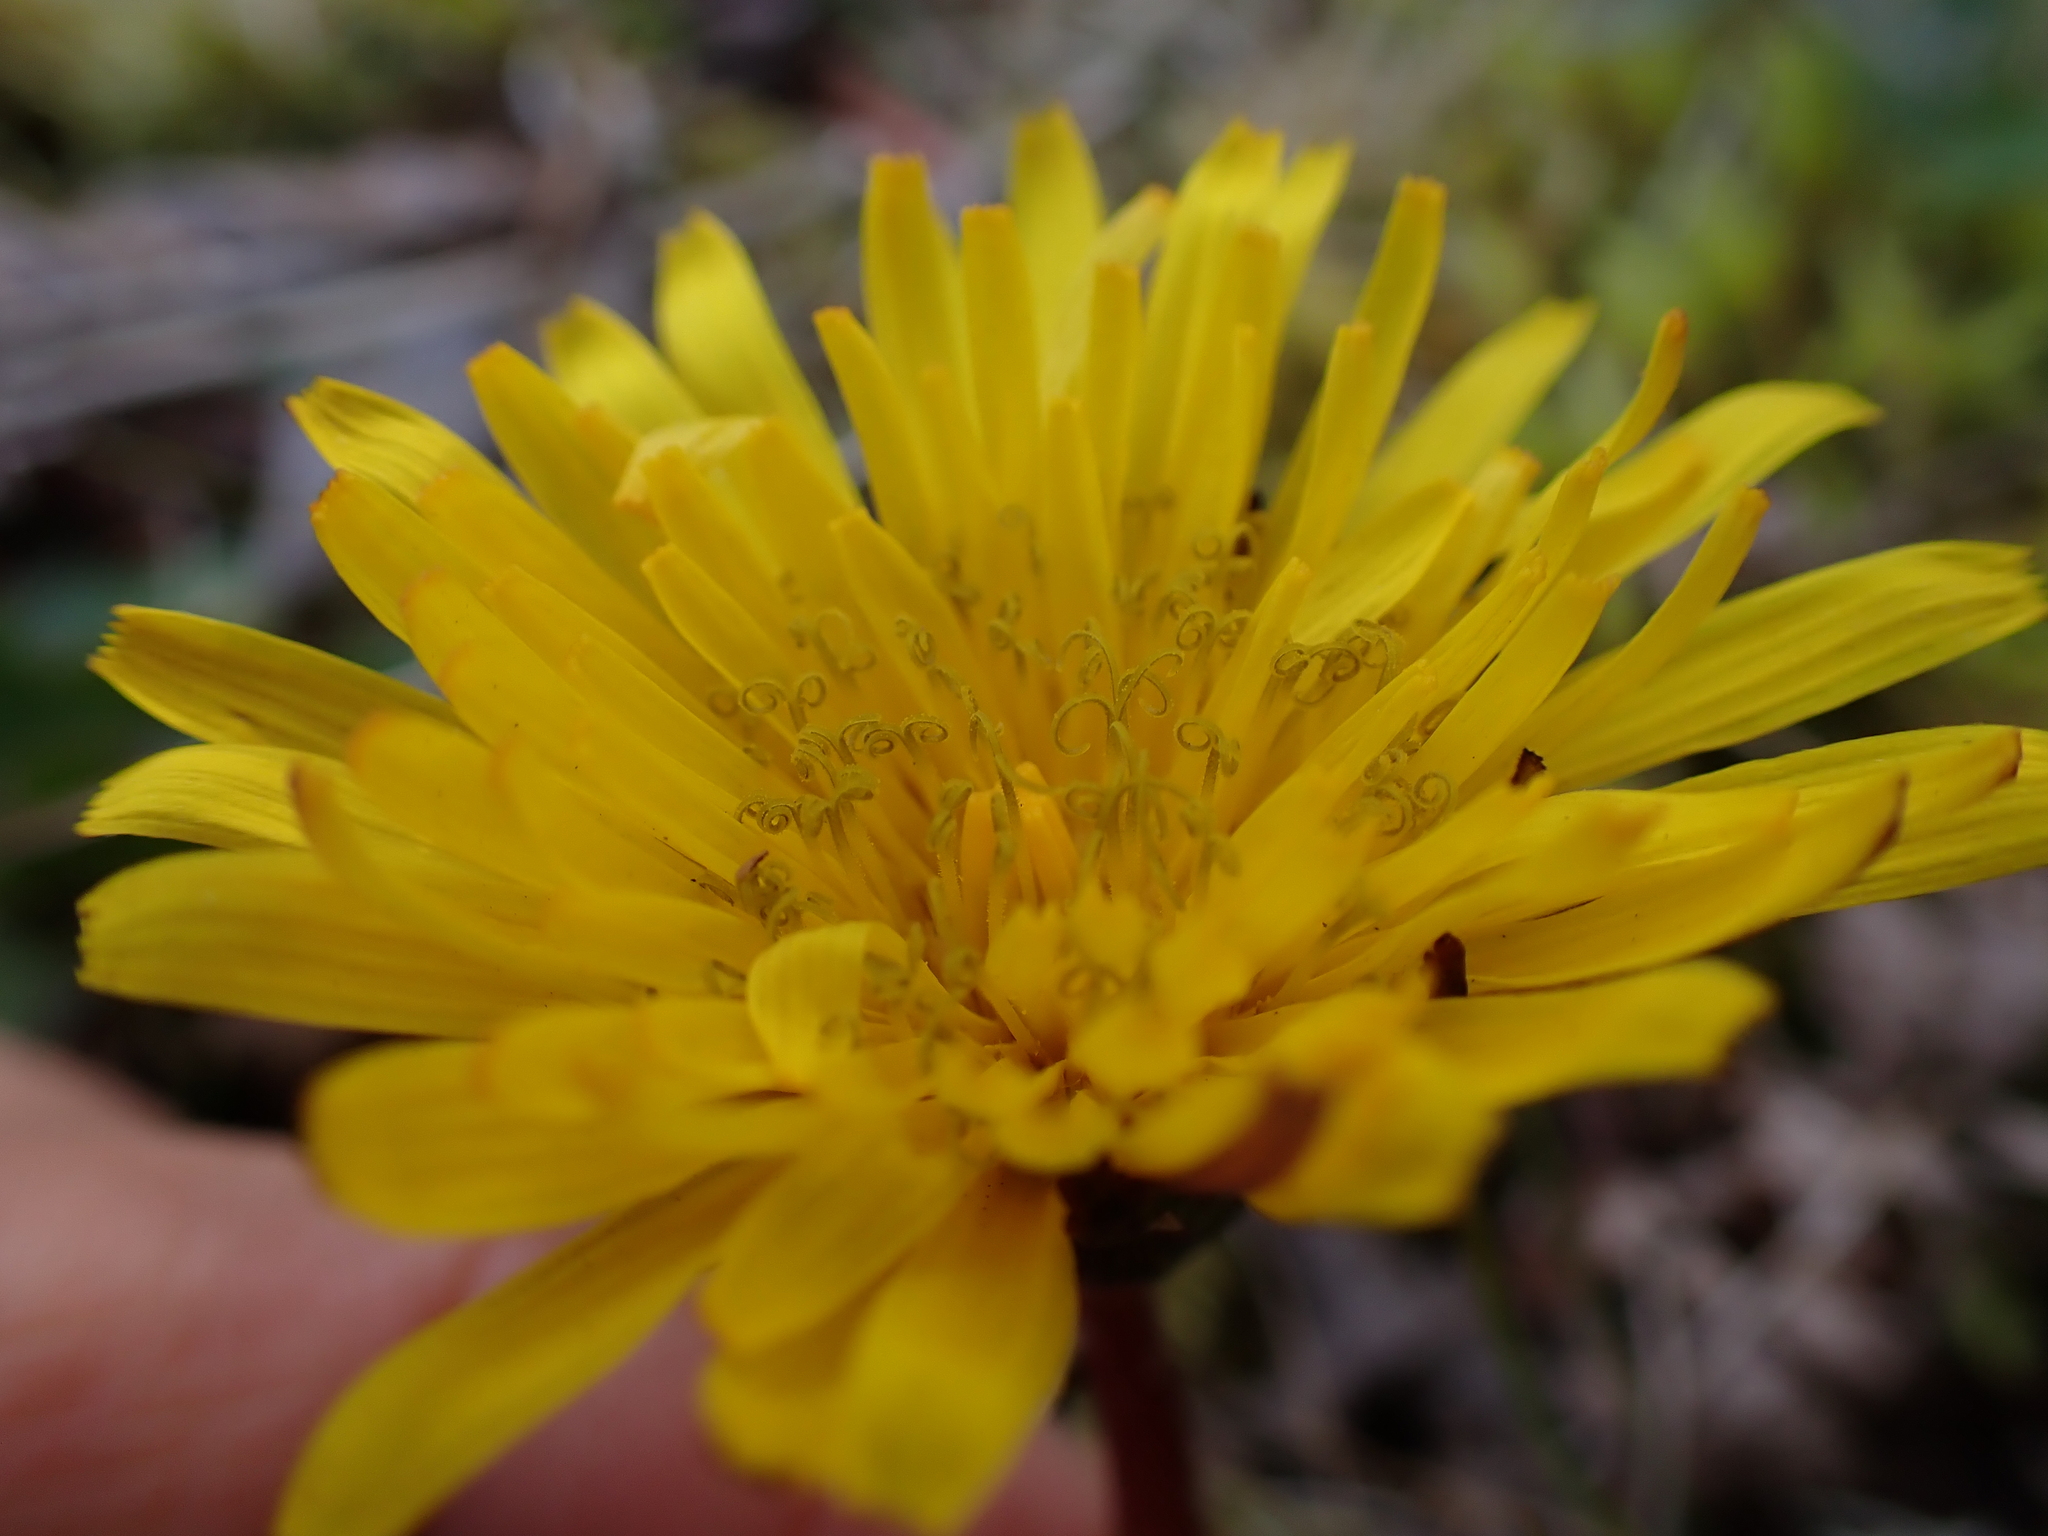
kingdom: Plantae
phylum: Tracheophyta
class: Magnoliopsida
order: Asterales
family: Asteraceae
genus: Taraxacum
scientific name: Taraxacum faeroense
